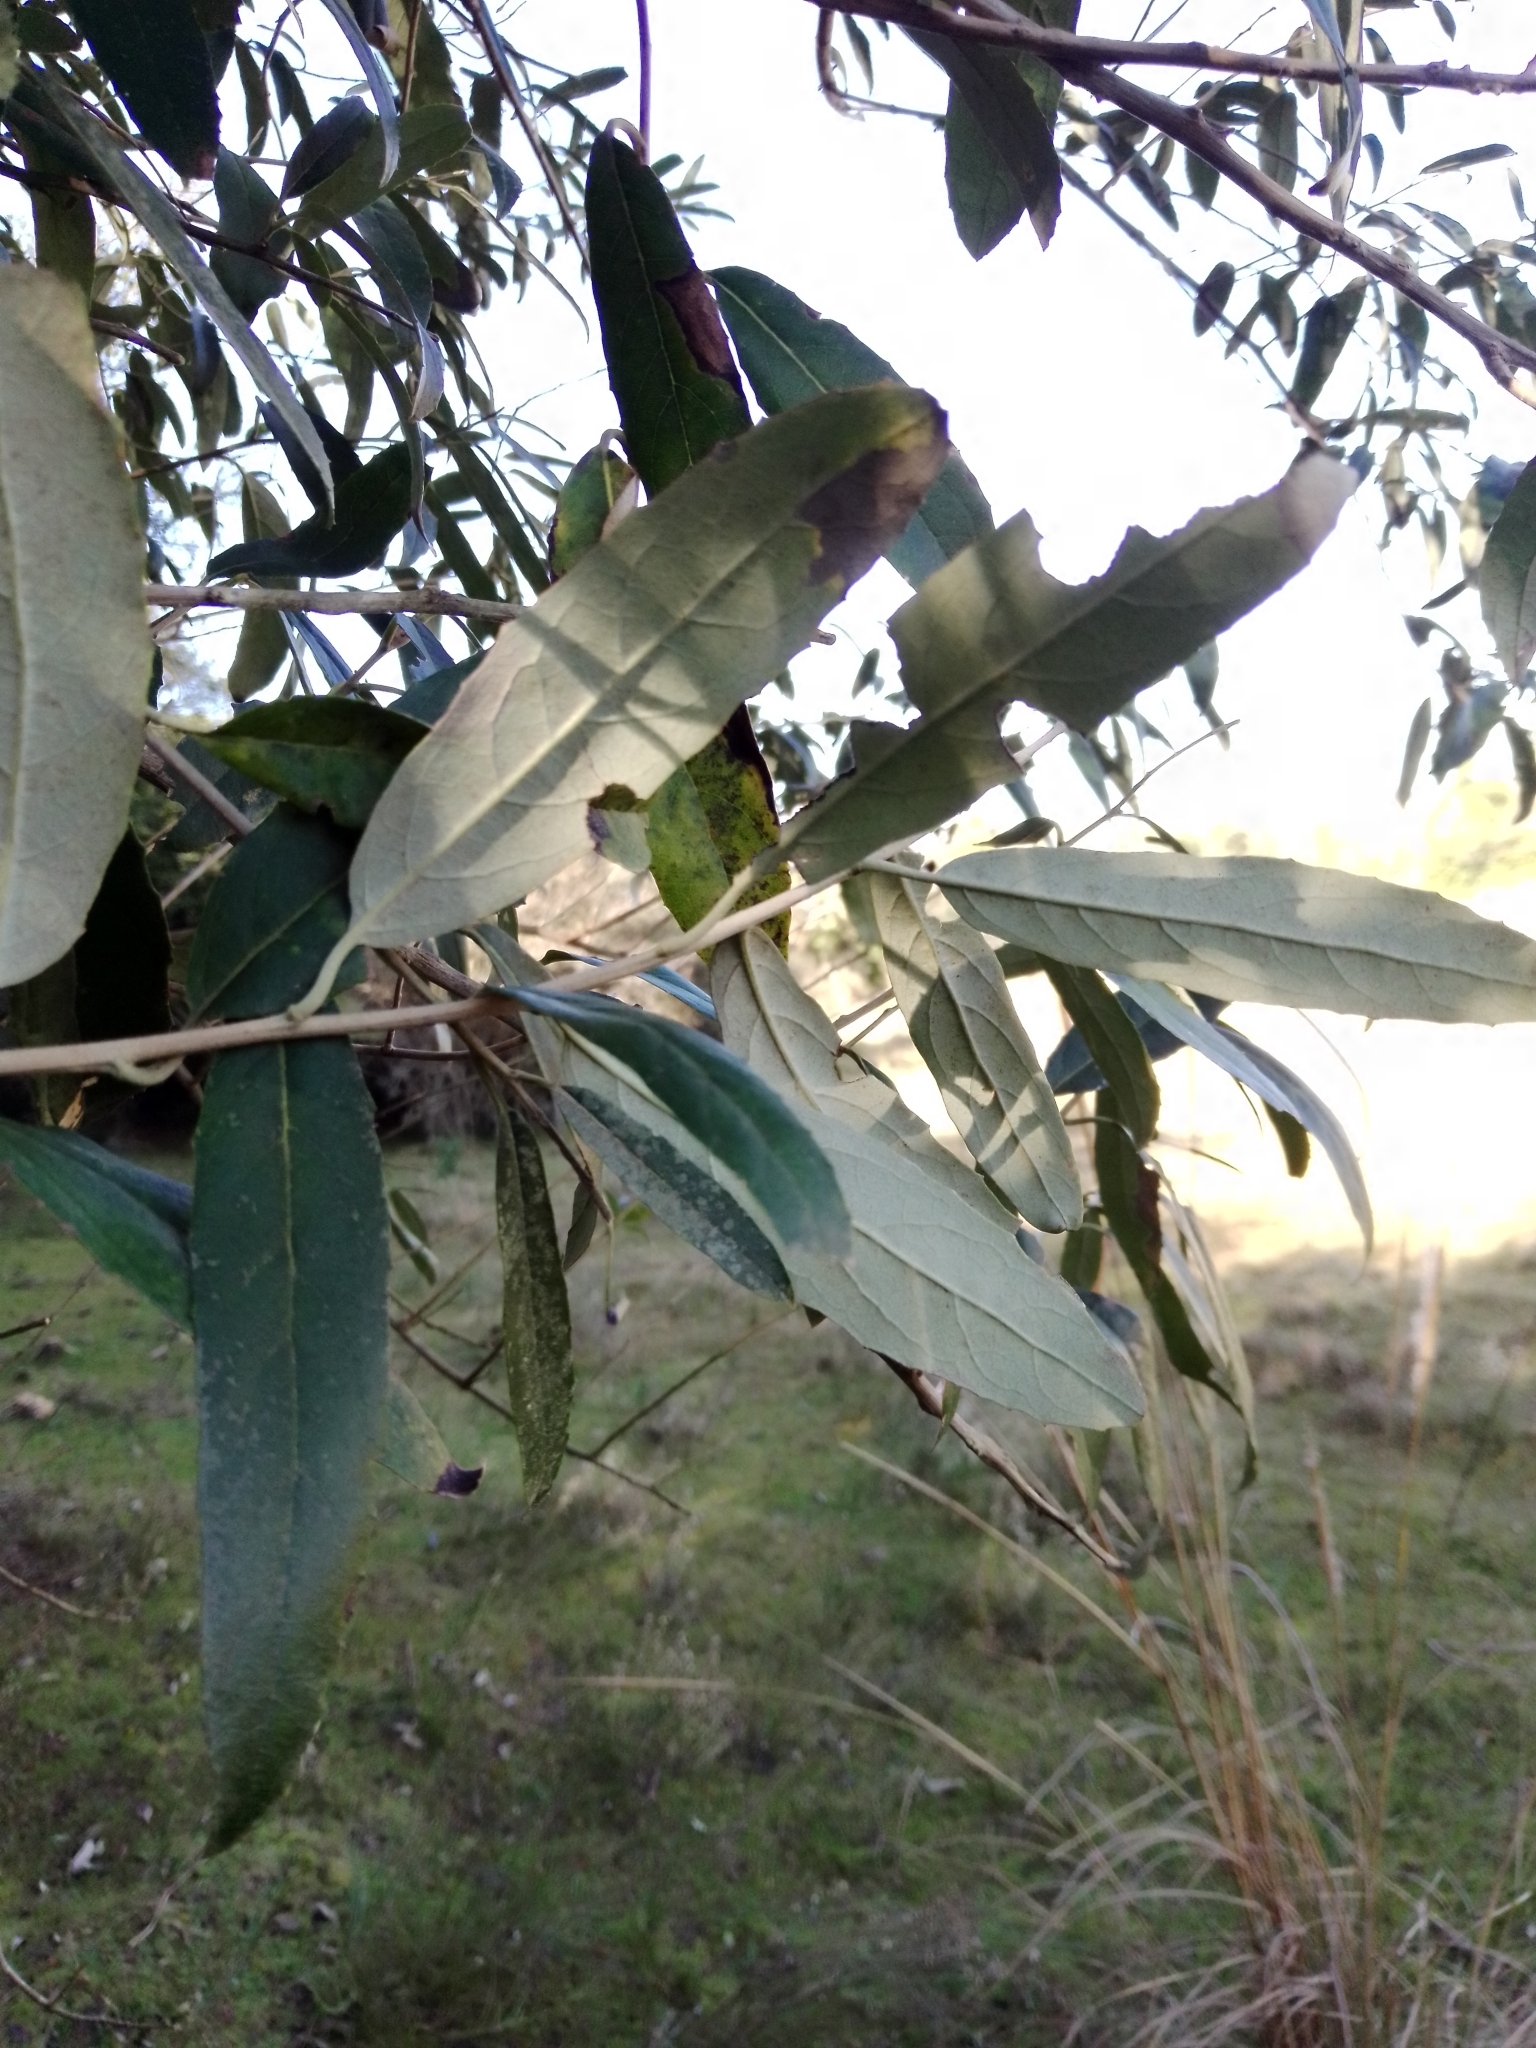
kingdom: Plantae
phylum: Tracheophyta
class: Magnoliopsida
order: Asterales
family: Asteraceae
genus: Moquiniastrum
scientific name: Moquiniastrum polymorphum
